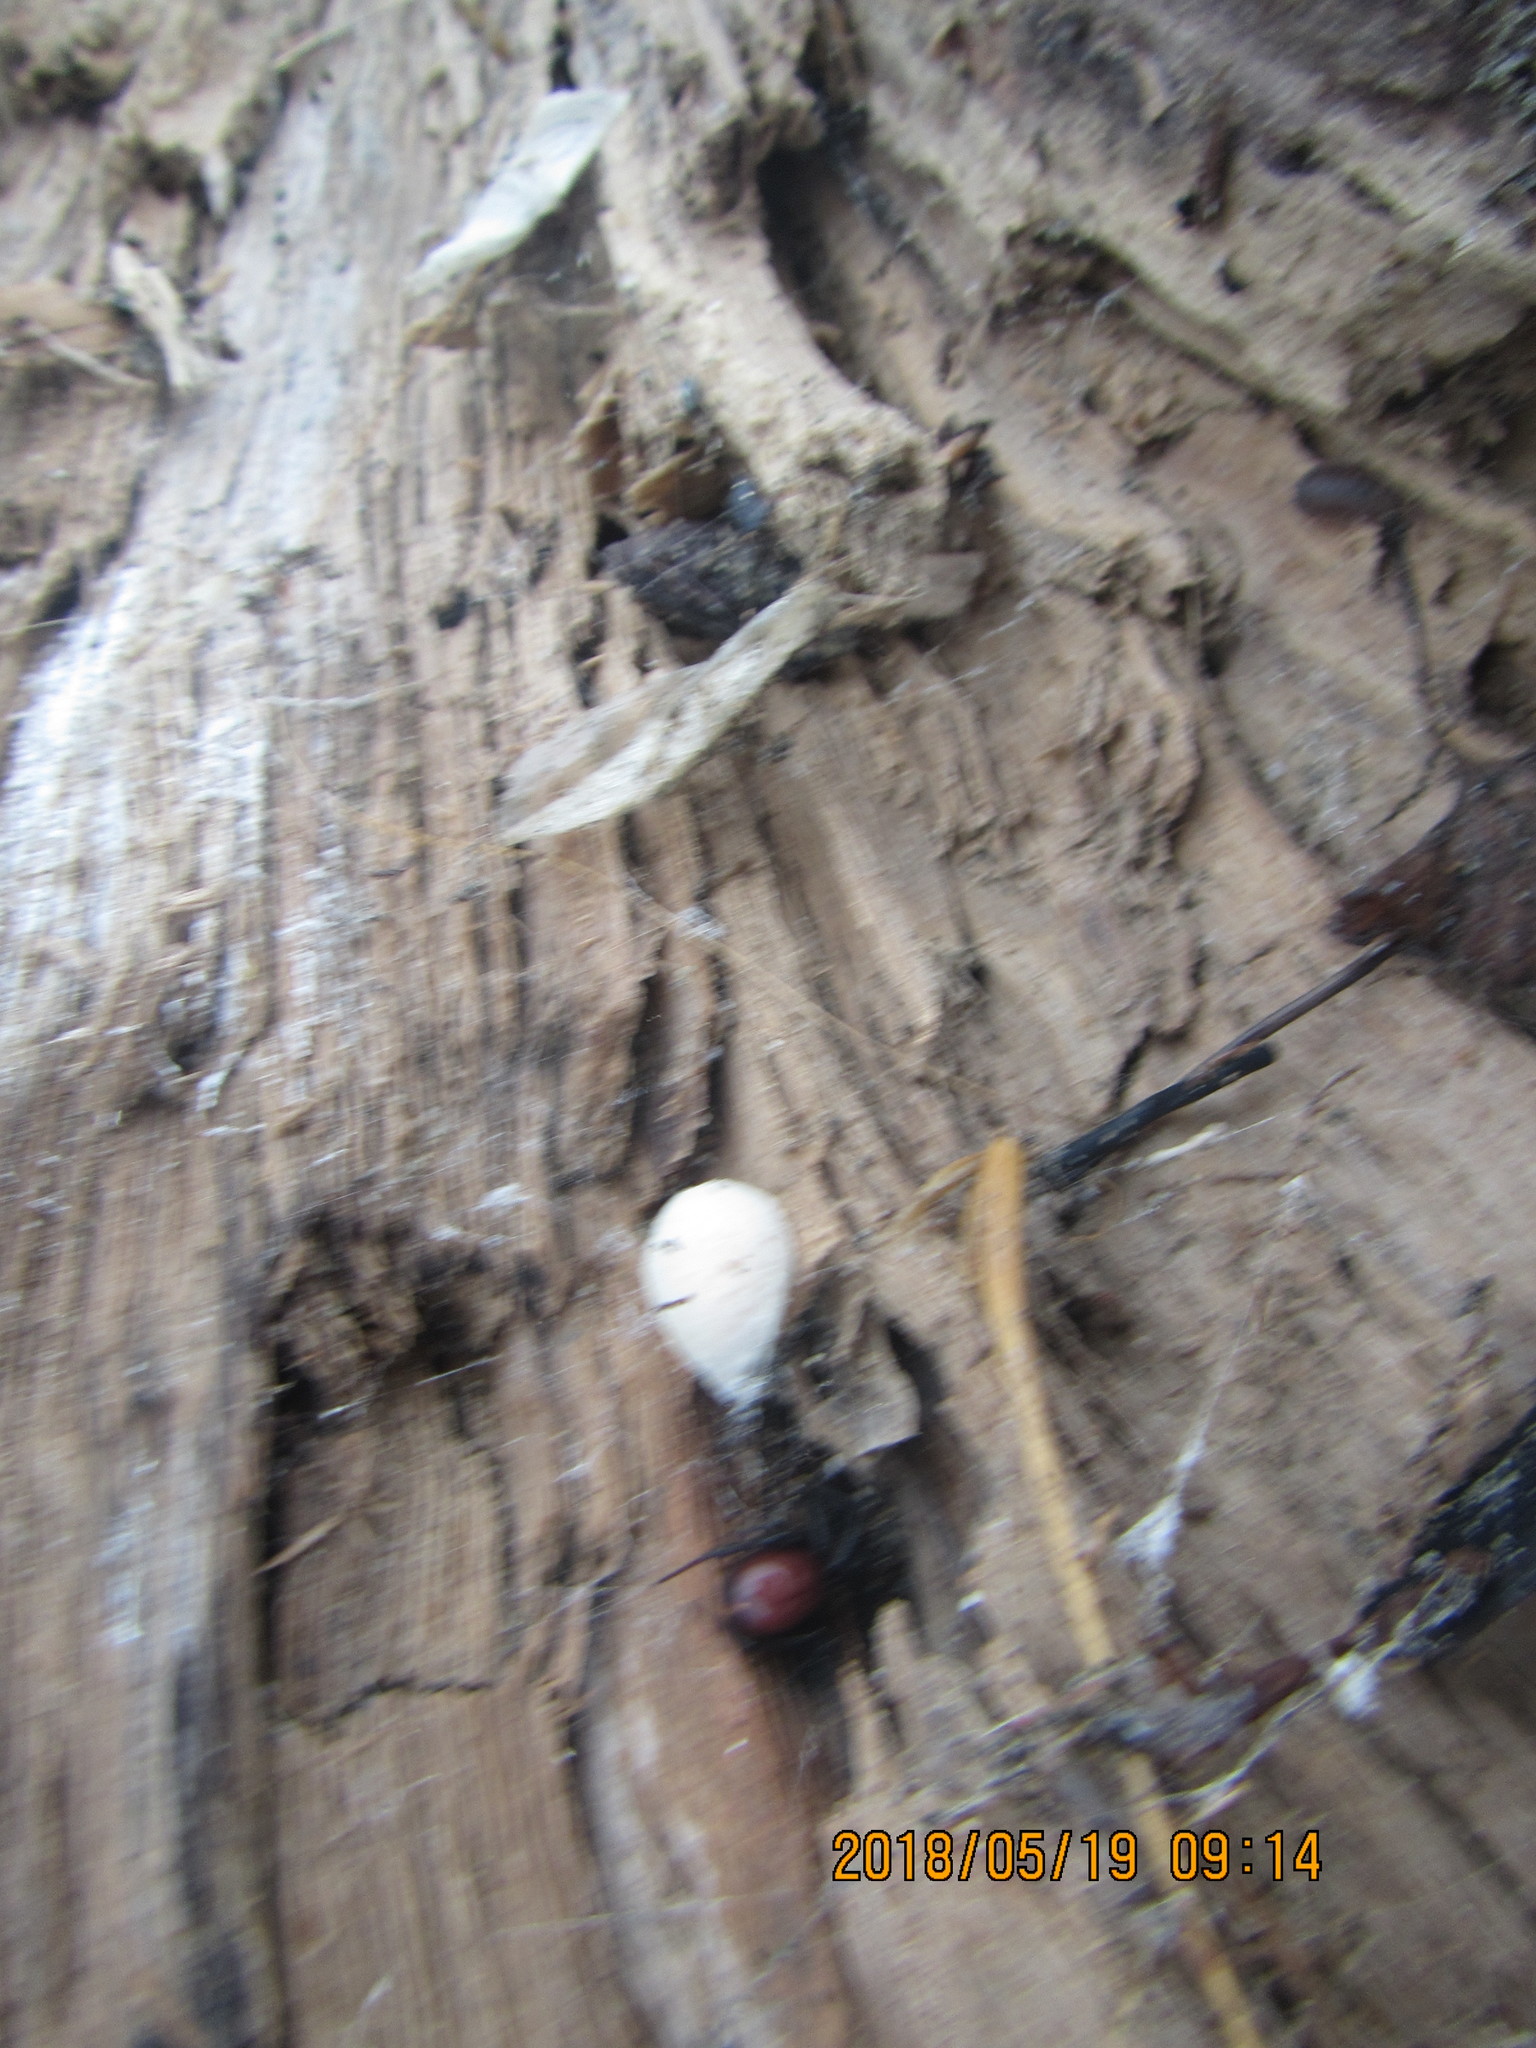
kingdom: Animalia
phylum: Arthropoda
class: Arachnida
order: Araneae
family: Theridiidae
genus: Steatoda
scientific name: Steatoda capensis
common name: Cobweb weaver
